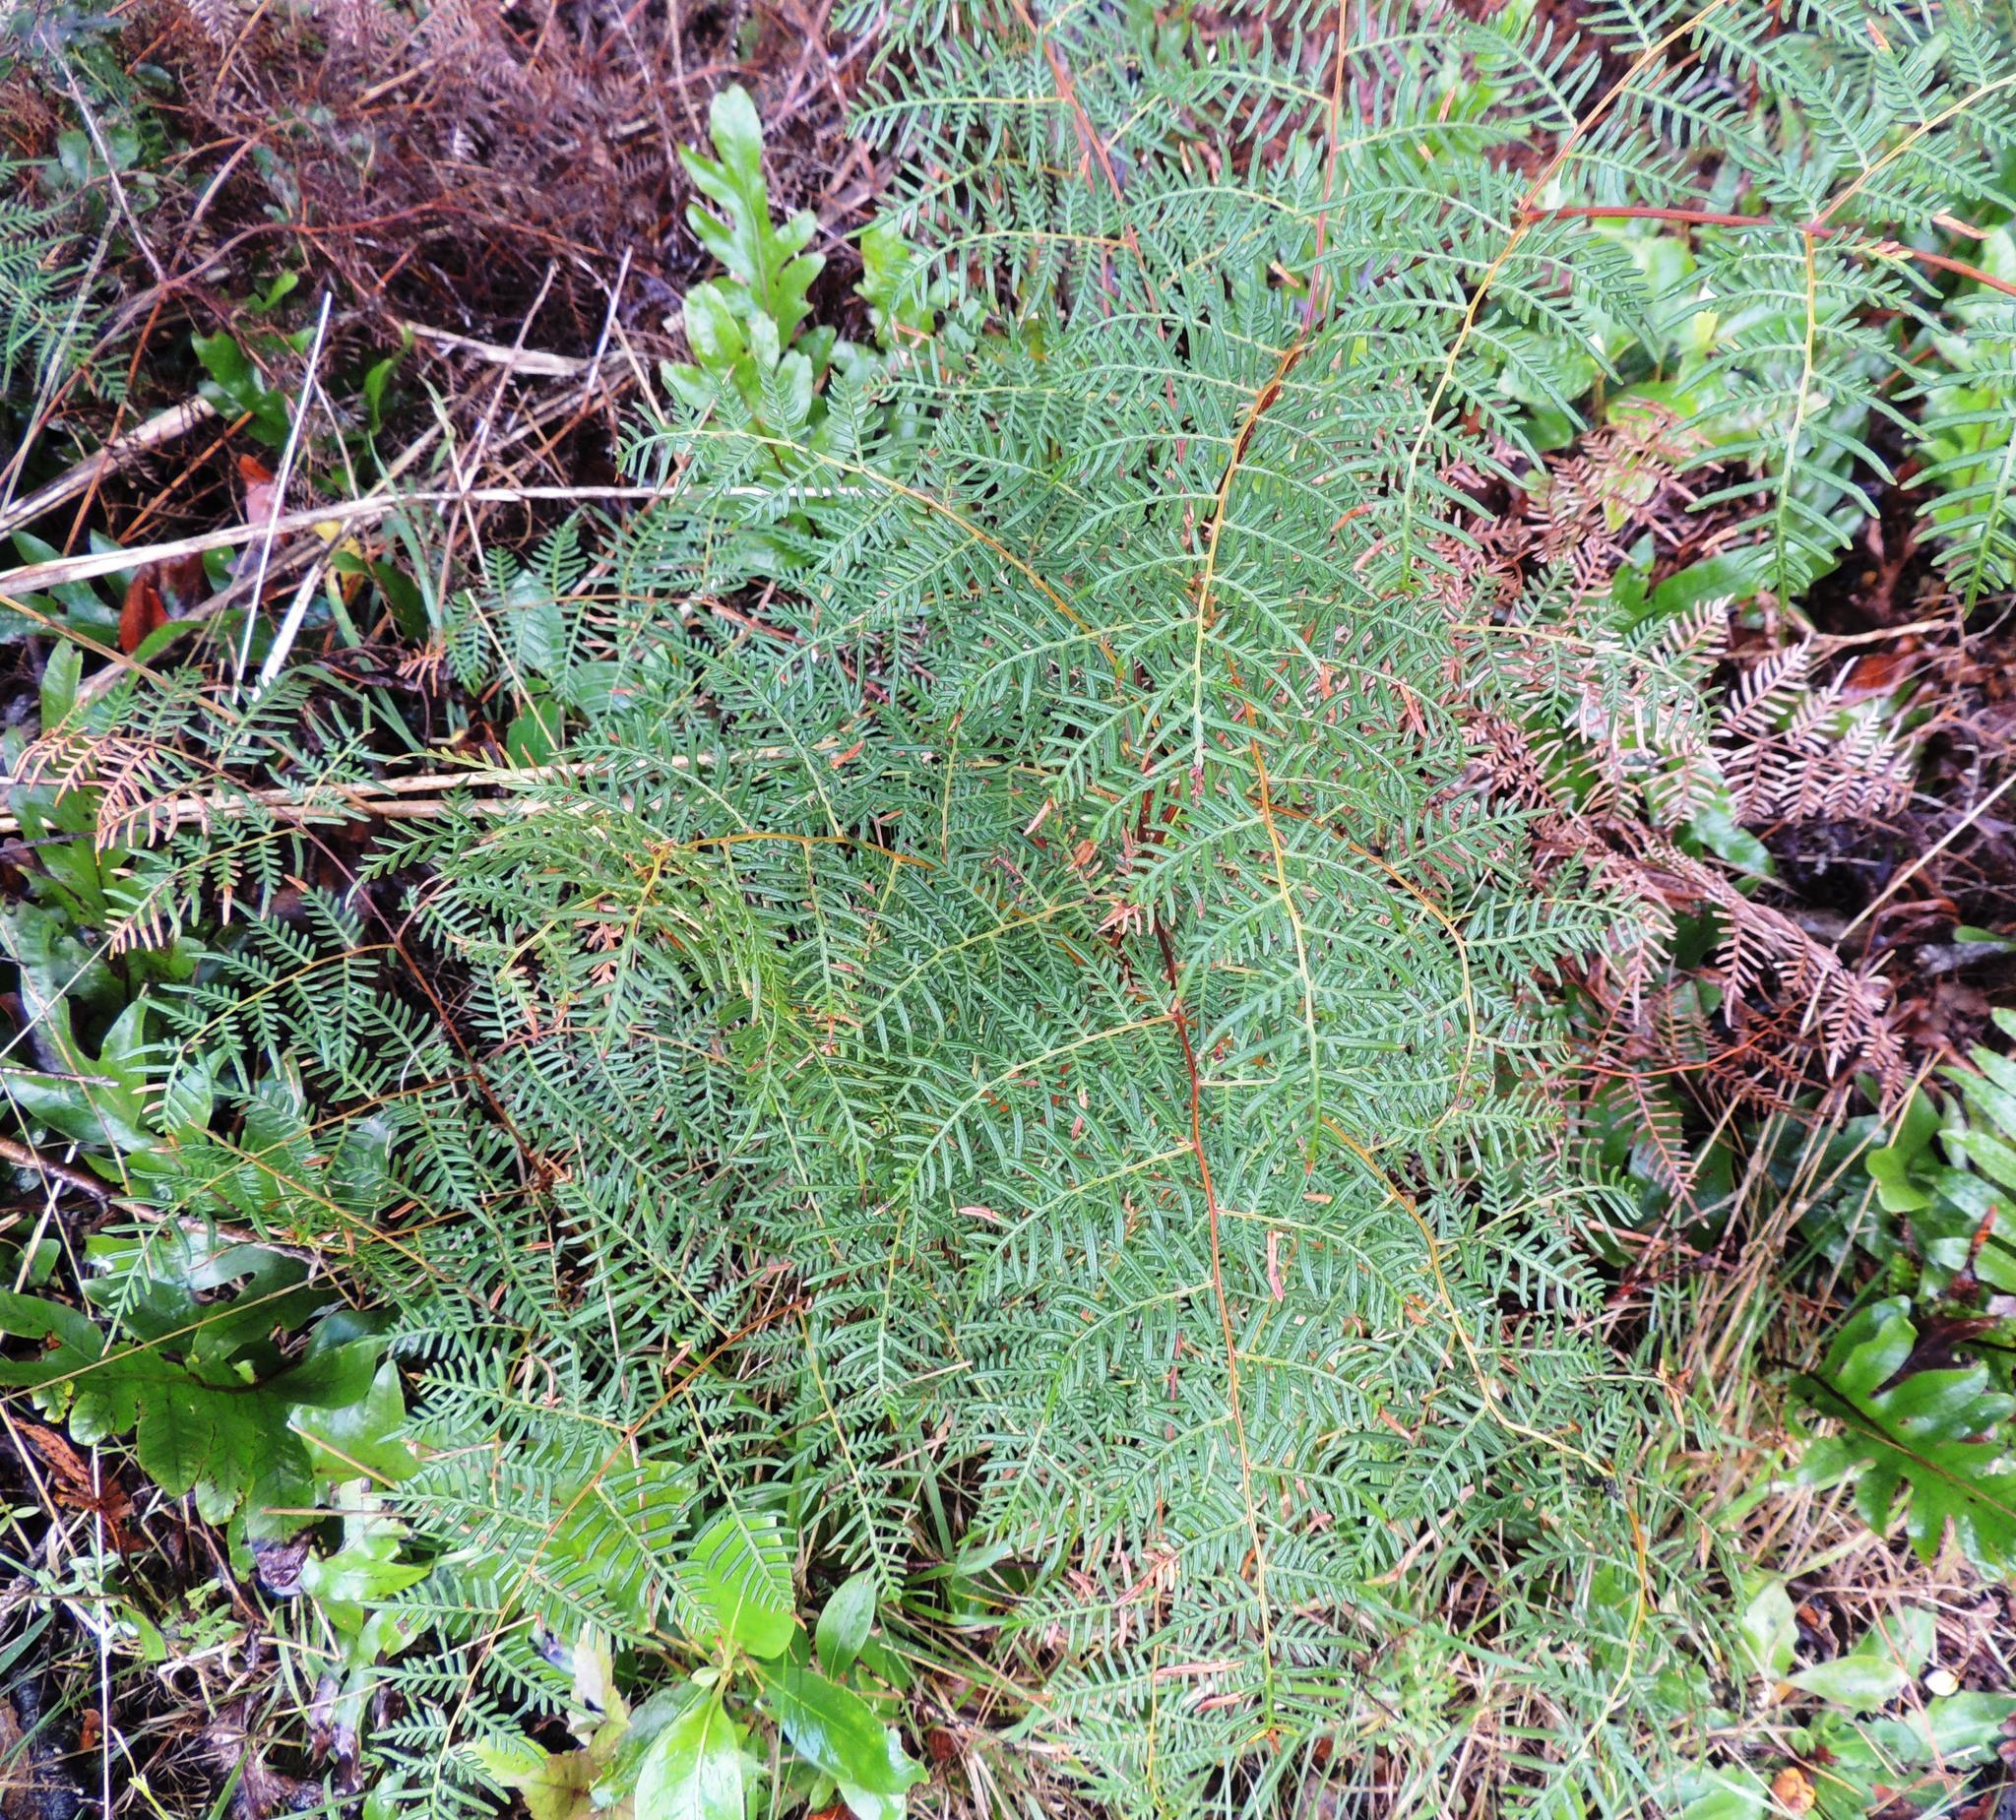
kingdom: Plantae
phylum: Tracheophyta
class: Polypodiopsida
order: Polypodiales
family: Dennstaedtiaceae
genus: Pteridium
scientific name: Pteridium esculentum
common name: Bracken fern
